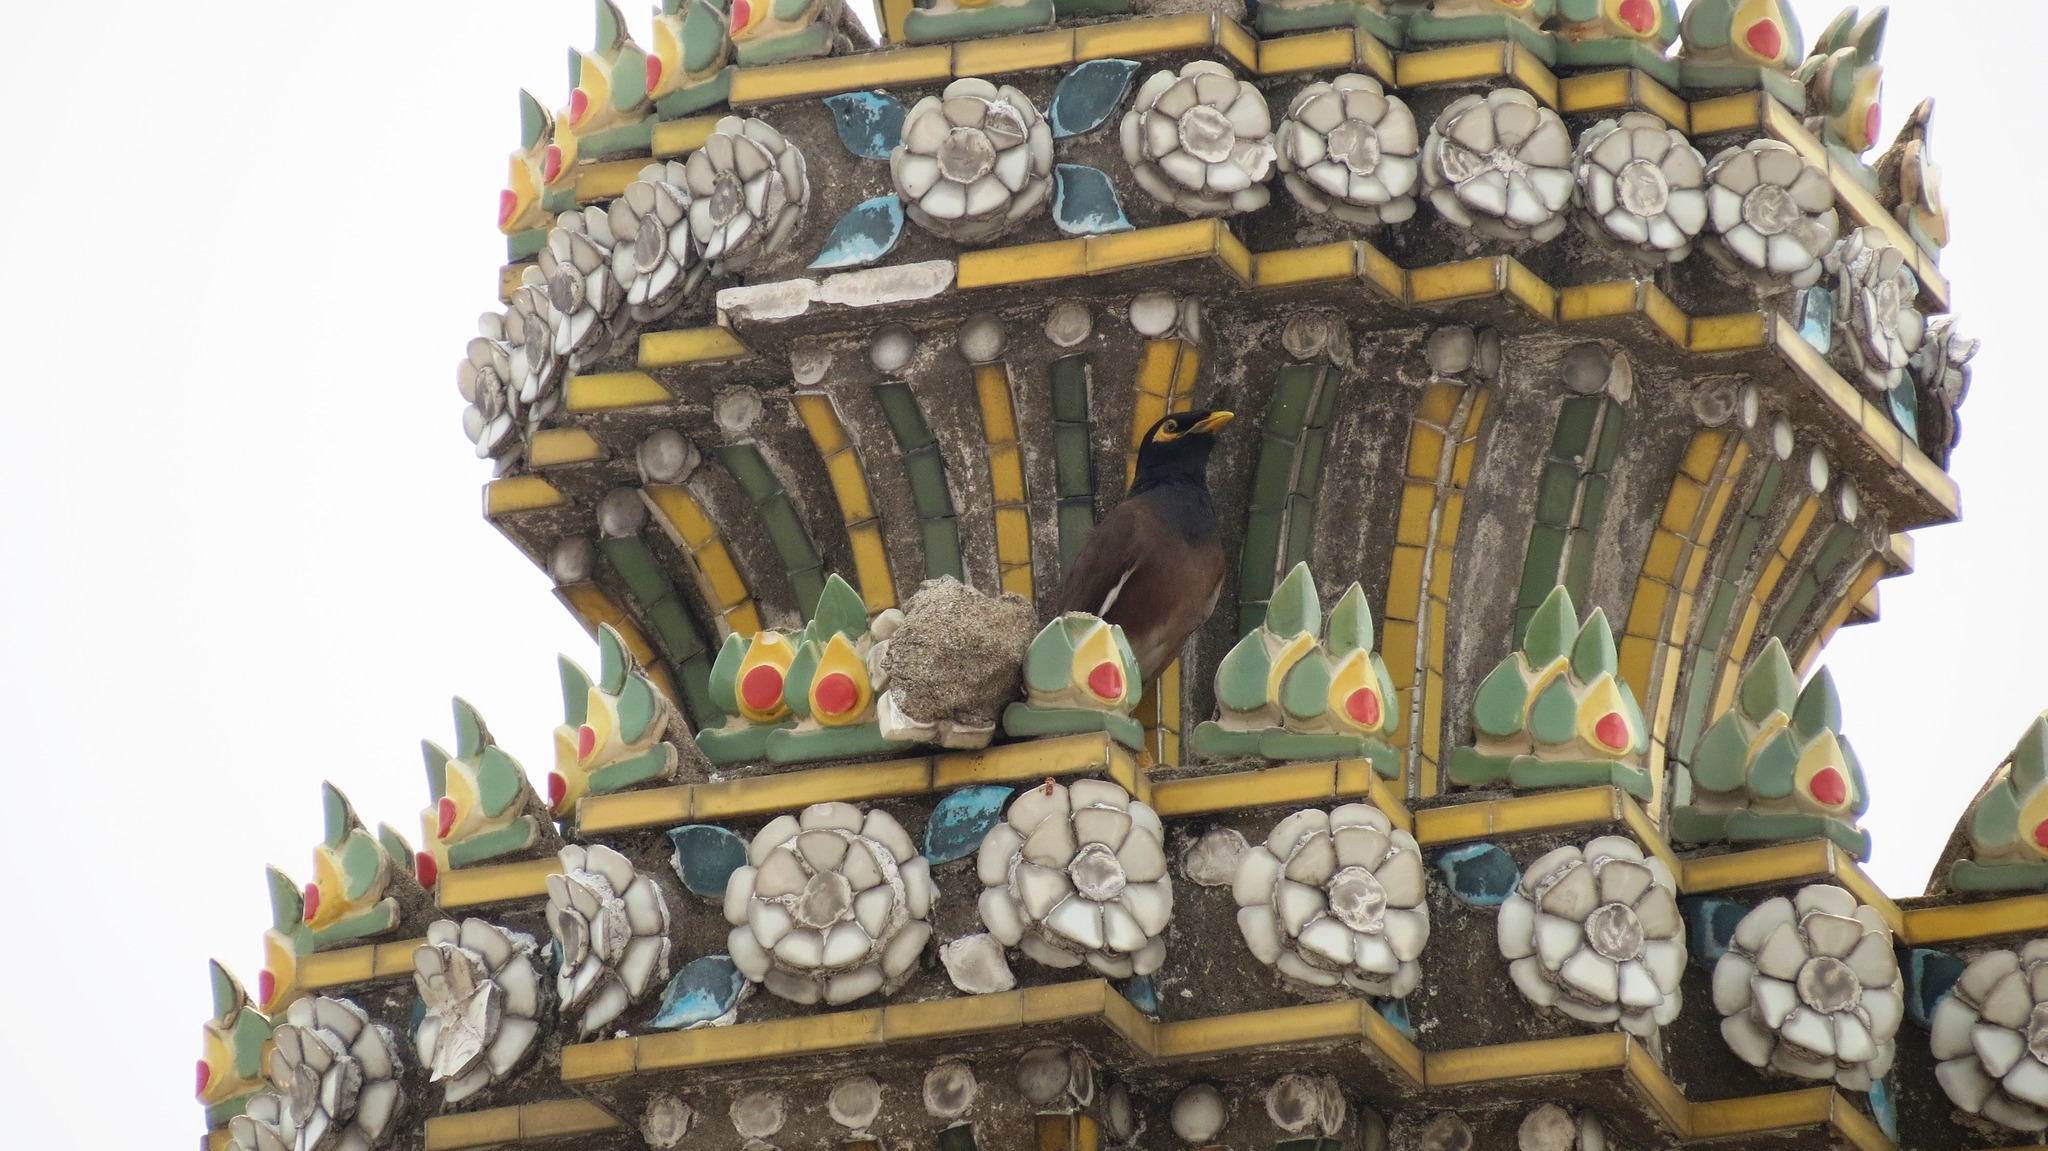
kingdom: Animalia
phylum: Chordata
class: Aves
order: Passeriformes
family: Sturnidae
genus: Acridotheres
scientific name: Acridotheres tristis
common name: Common myna
